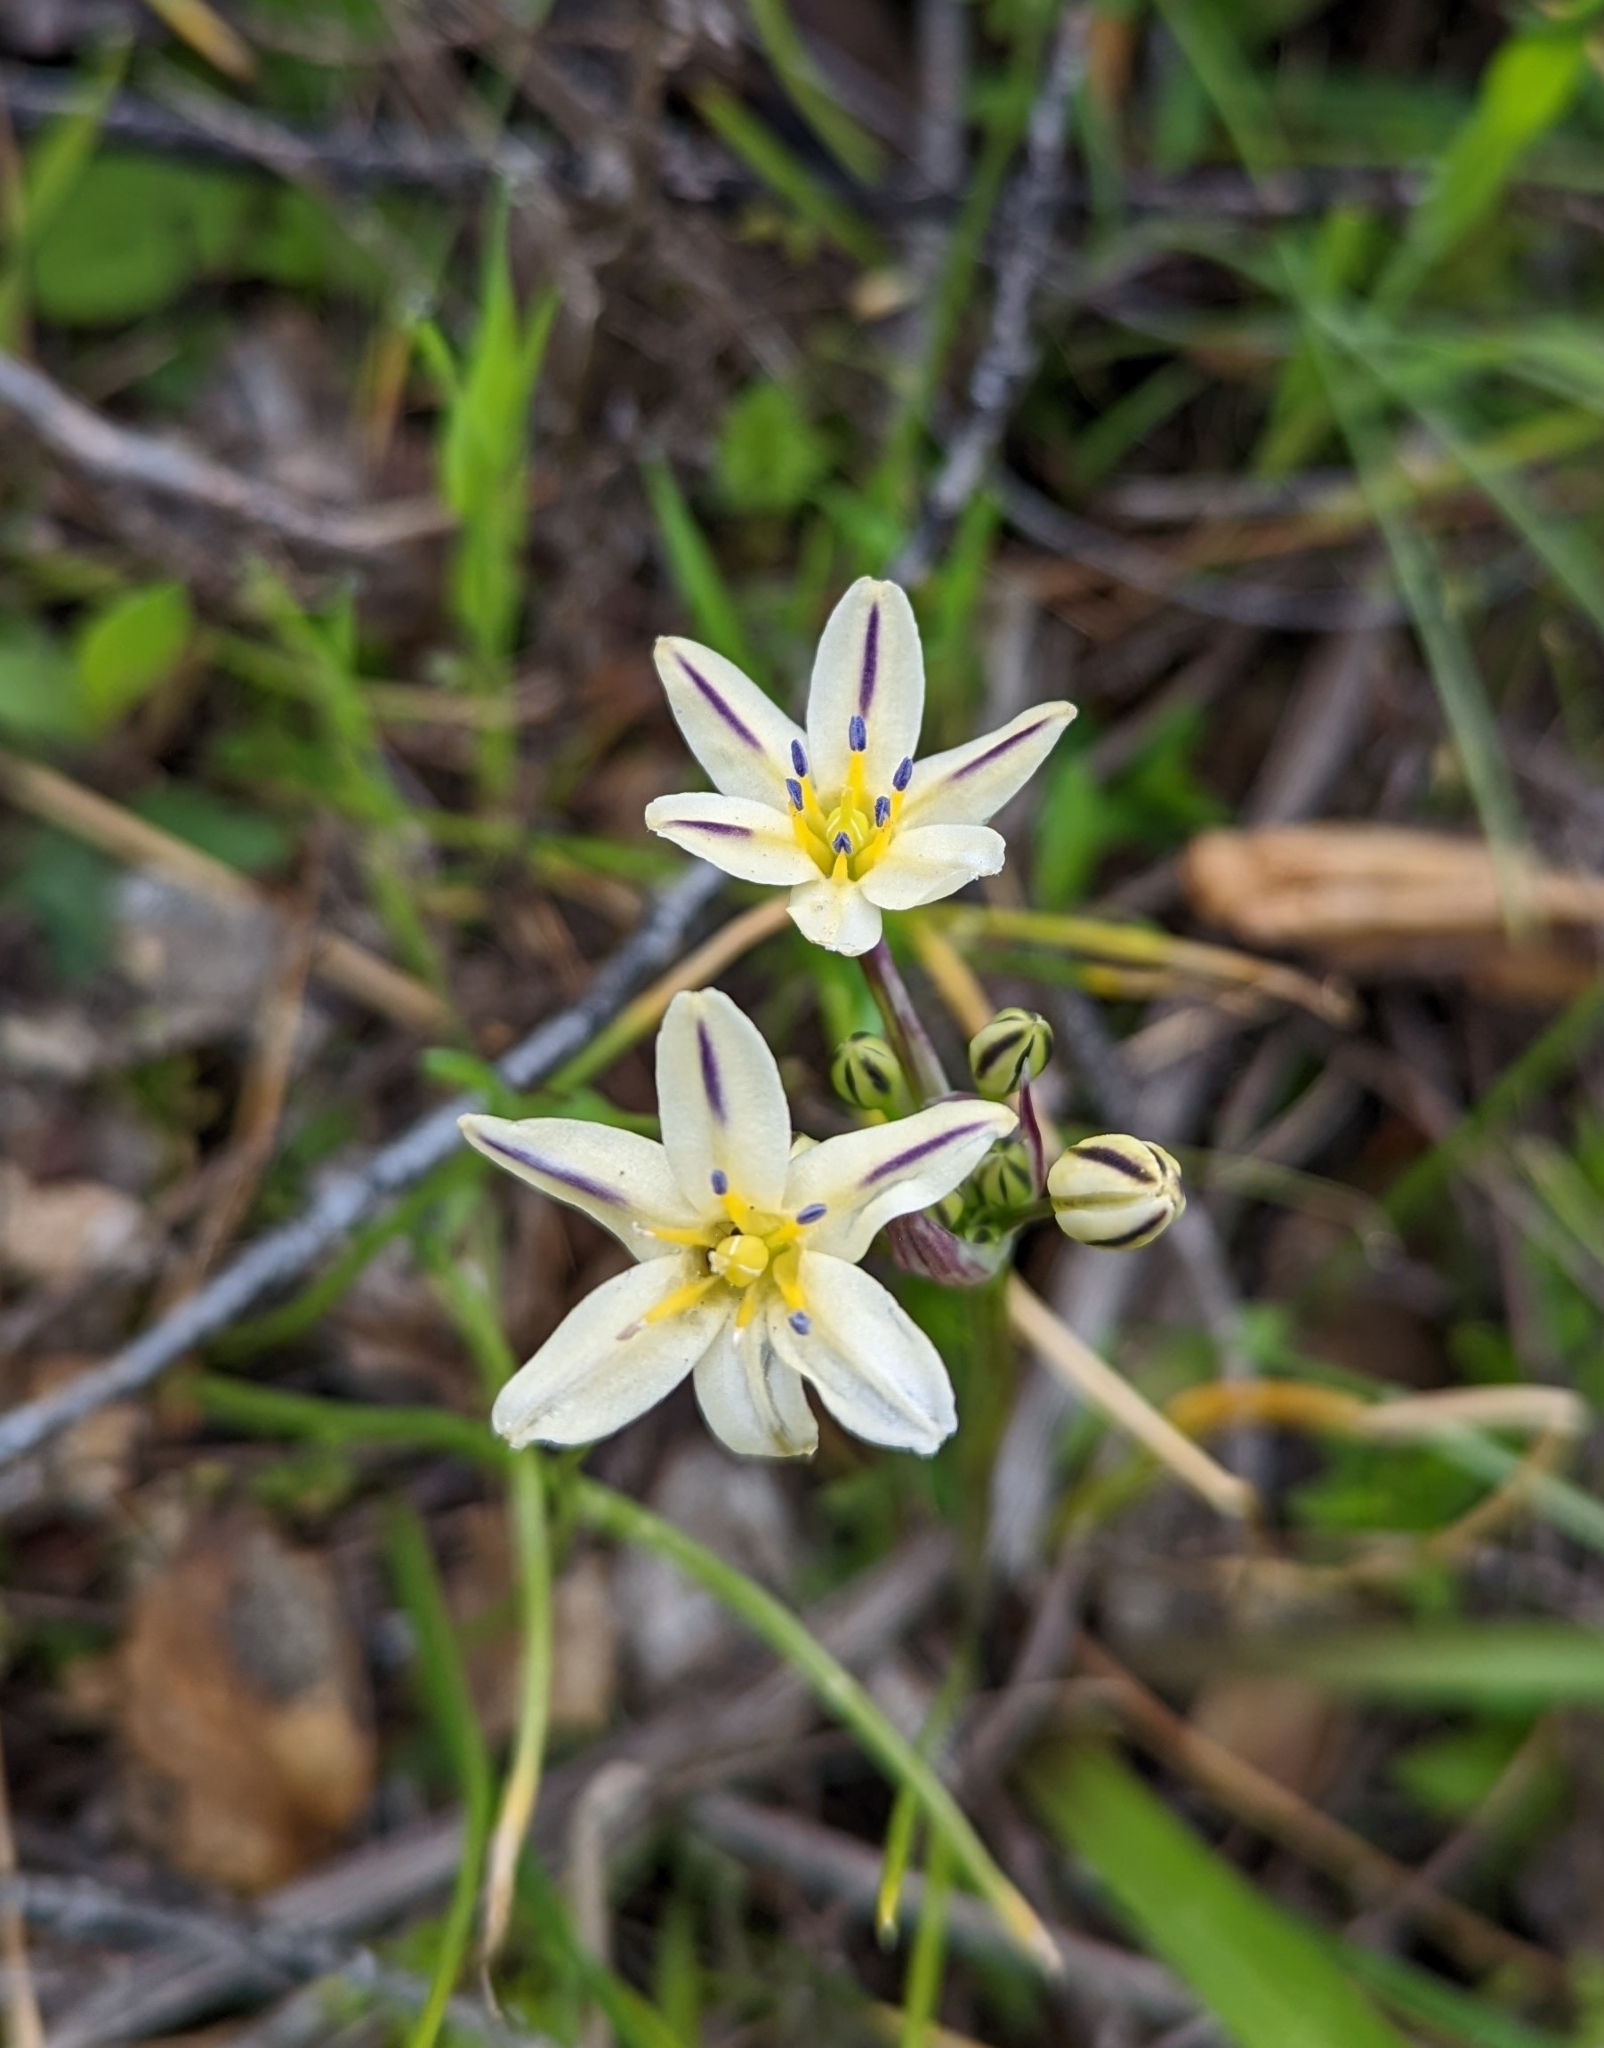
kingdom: Plantae
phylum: Tracheophyta
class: Liliopsida
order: Asparagales
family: Asparagaceae
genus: Triteleia
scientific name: Triteleia hendersonii
